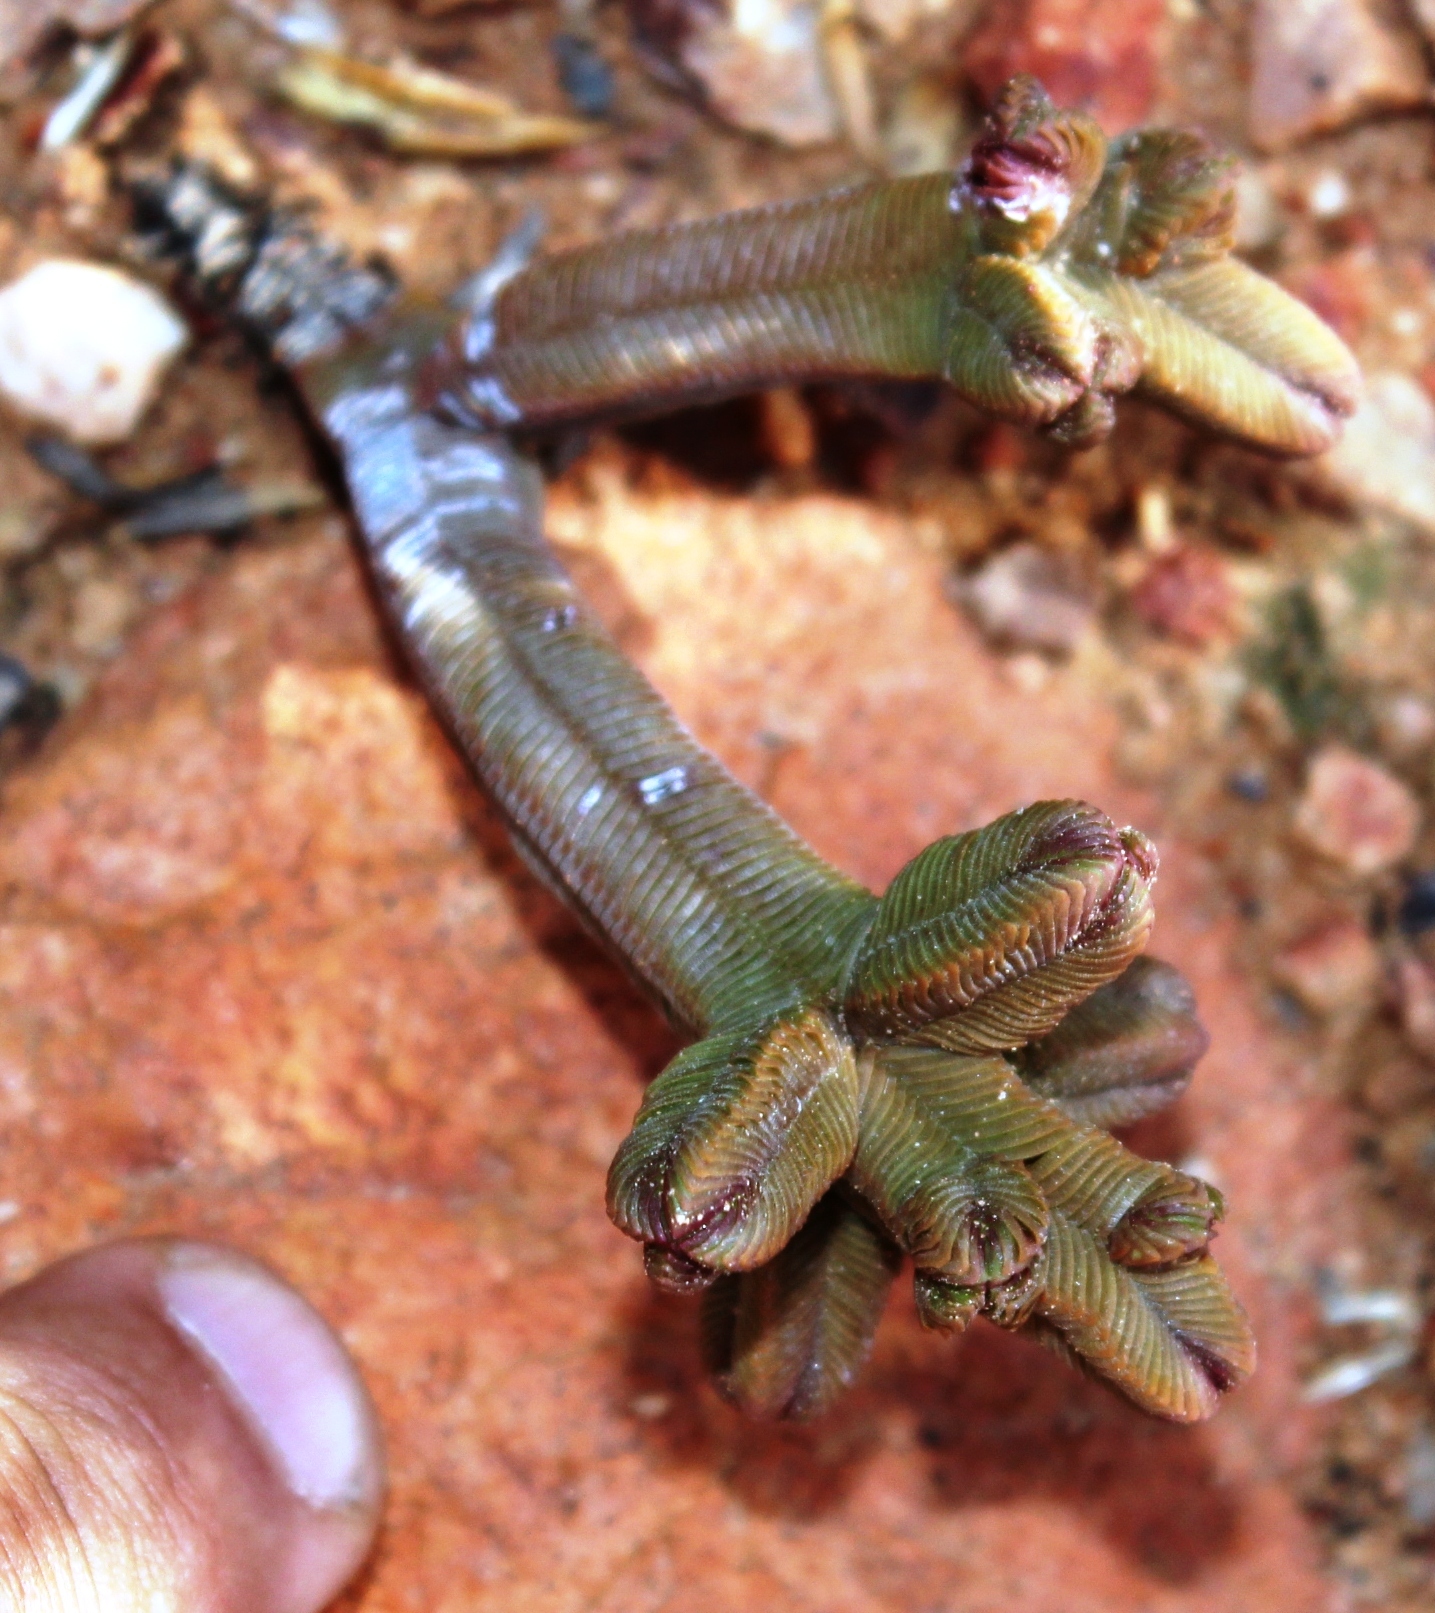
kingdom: Plantae
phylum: Tracheophyta
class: Magnoliopsida
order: Saxifragales
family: Crassulaceae
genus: Crassula
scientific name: Crassula pyramidalis
